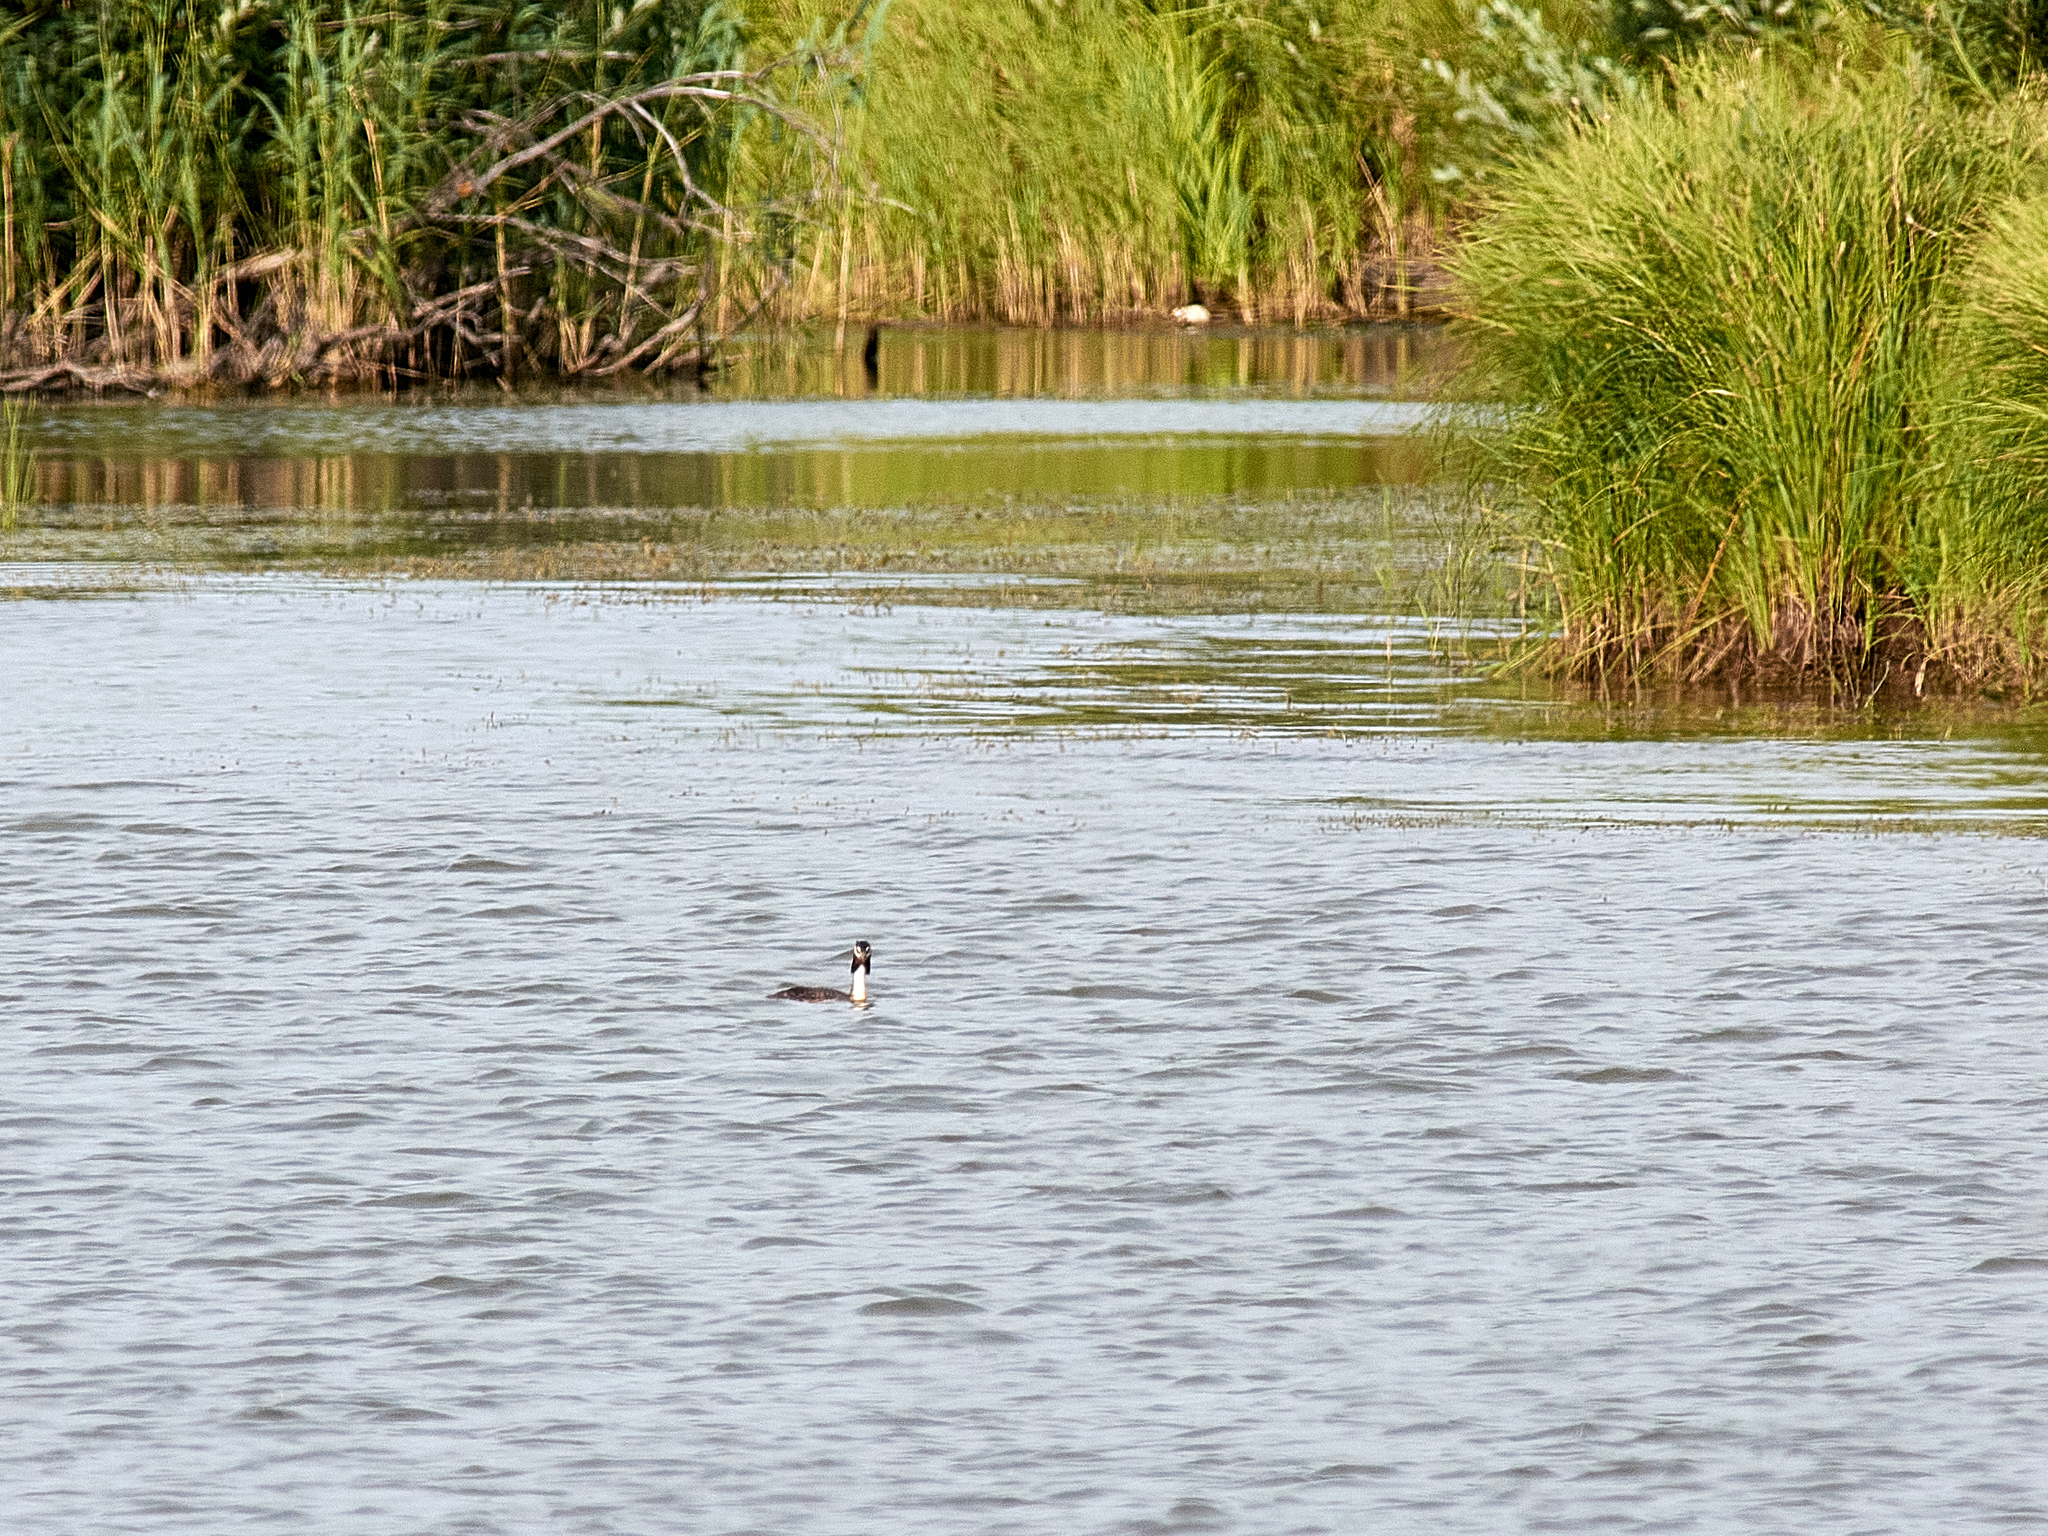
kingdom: Animalia
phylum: Chordata
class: Aves
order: Podicipediformes
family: Podicipedidae
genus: Podiceps
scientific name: Podiceps cristatus
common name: Great crested grebe
